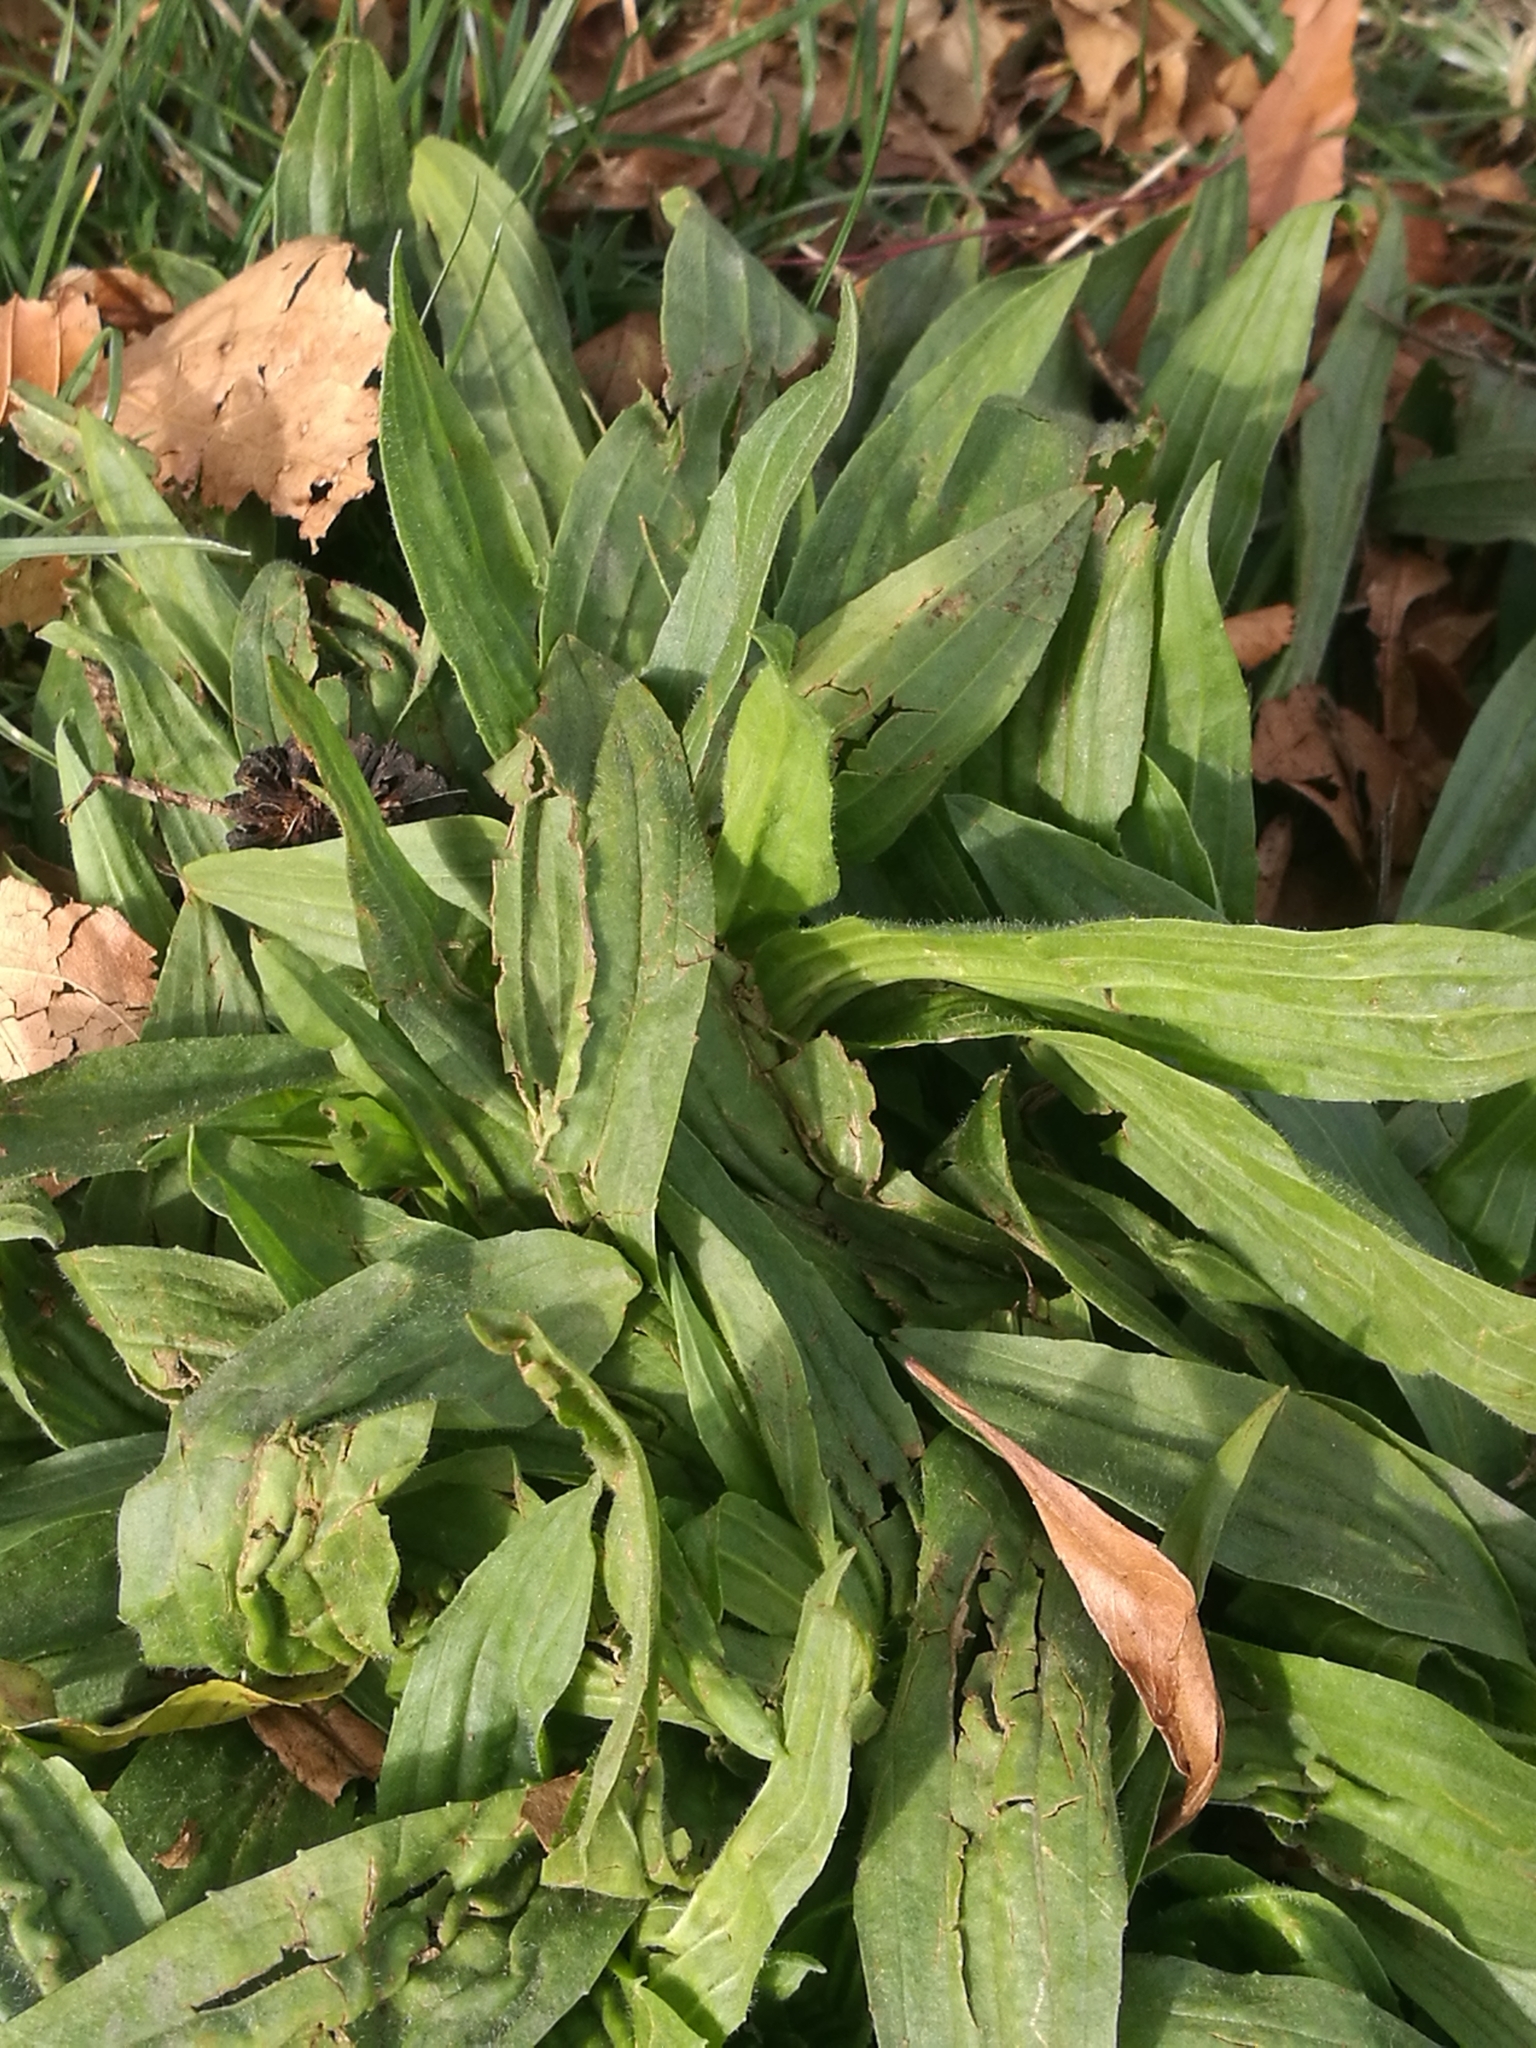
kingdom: Plantae
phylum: Tracheophyta
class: Magnoliopsida
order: Lamiales
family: Plantaginaceae
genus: Plantago
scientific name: Plantago lanceolata
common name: Ribwort plantain
